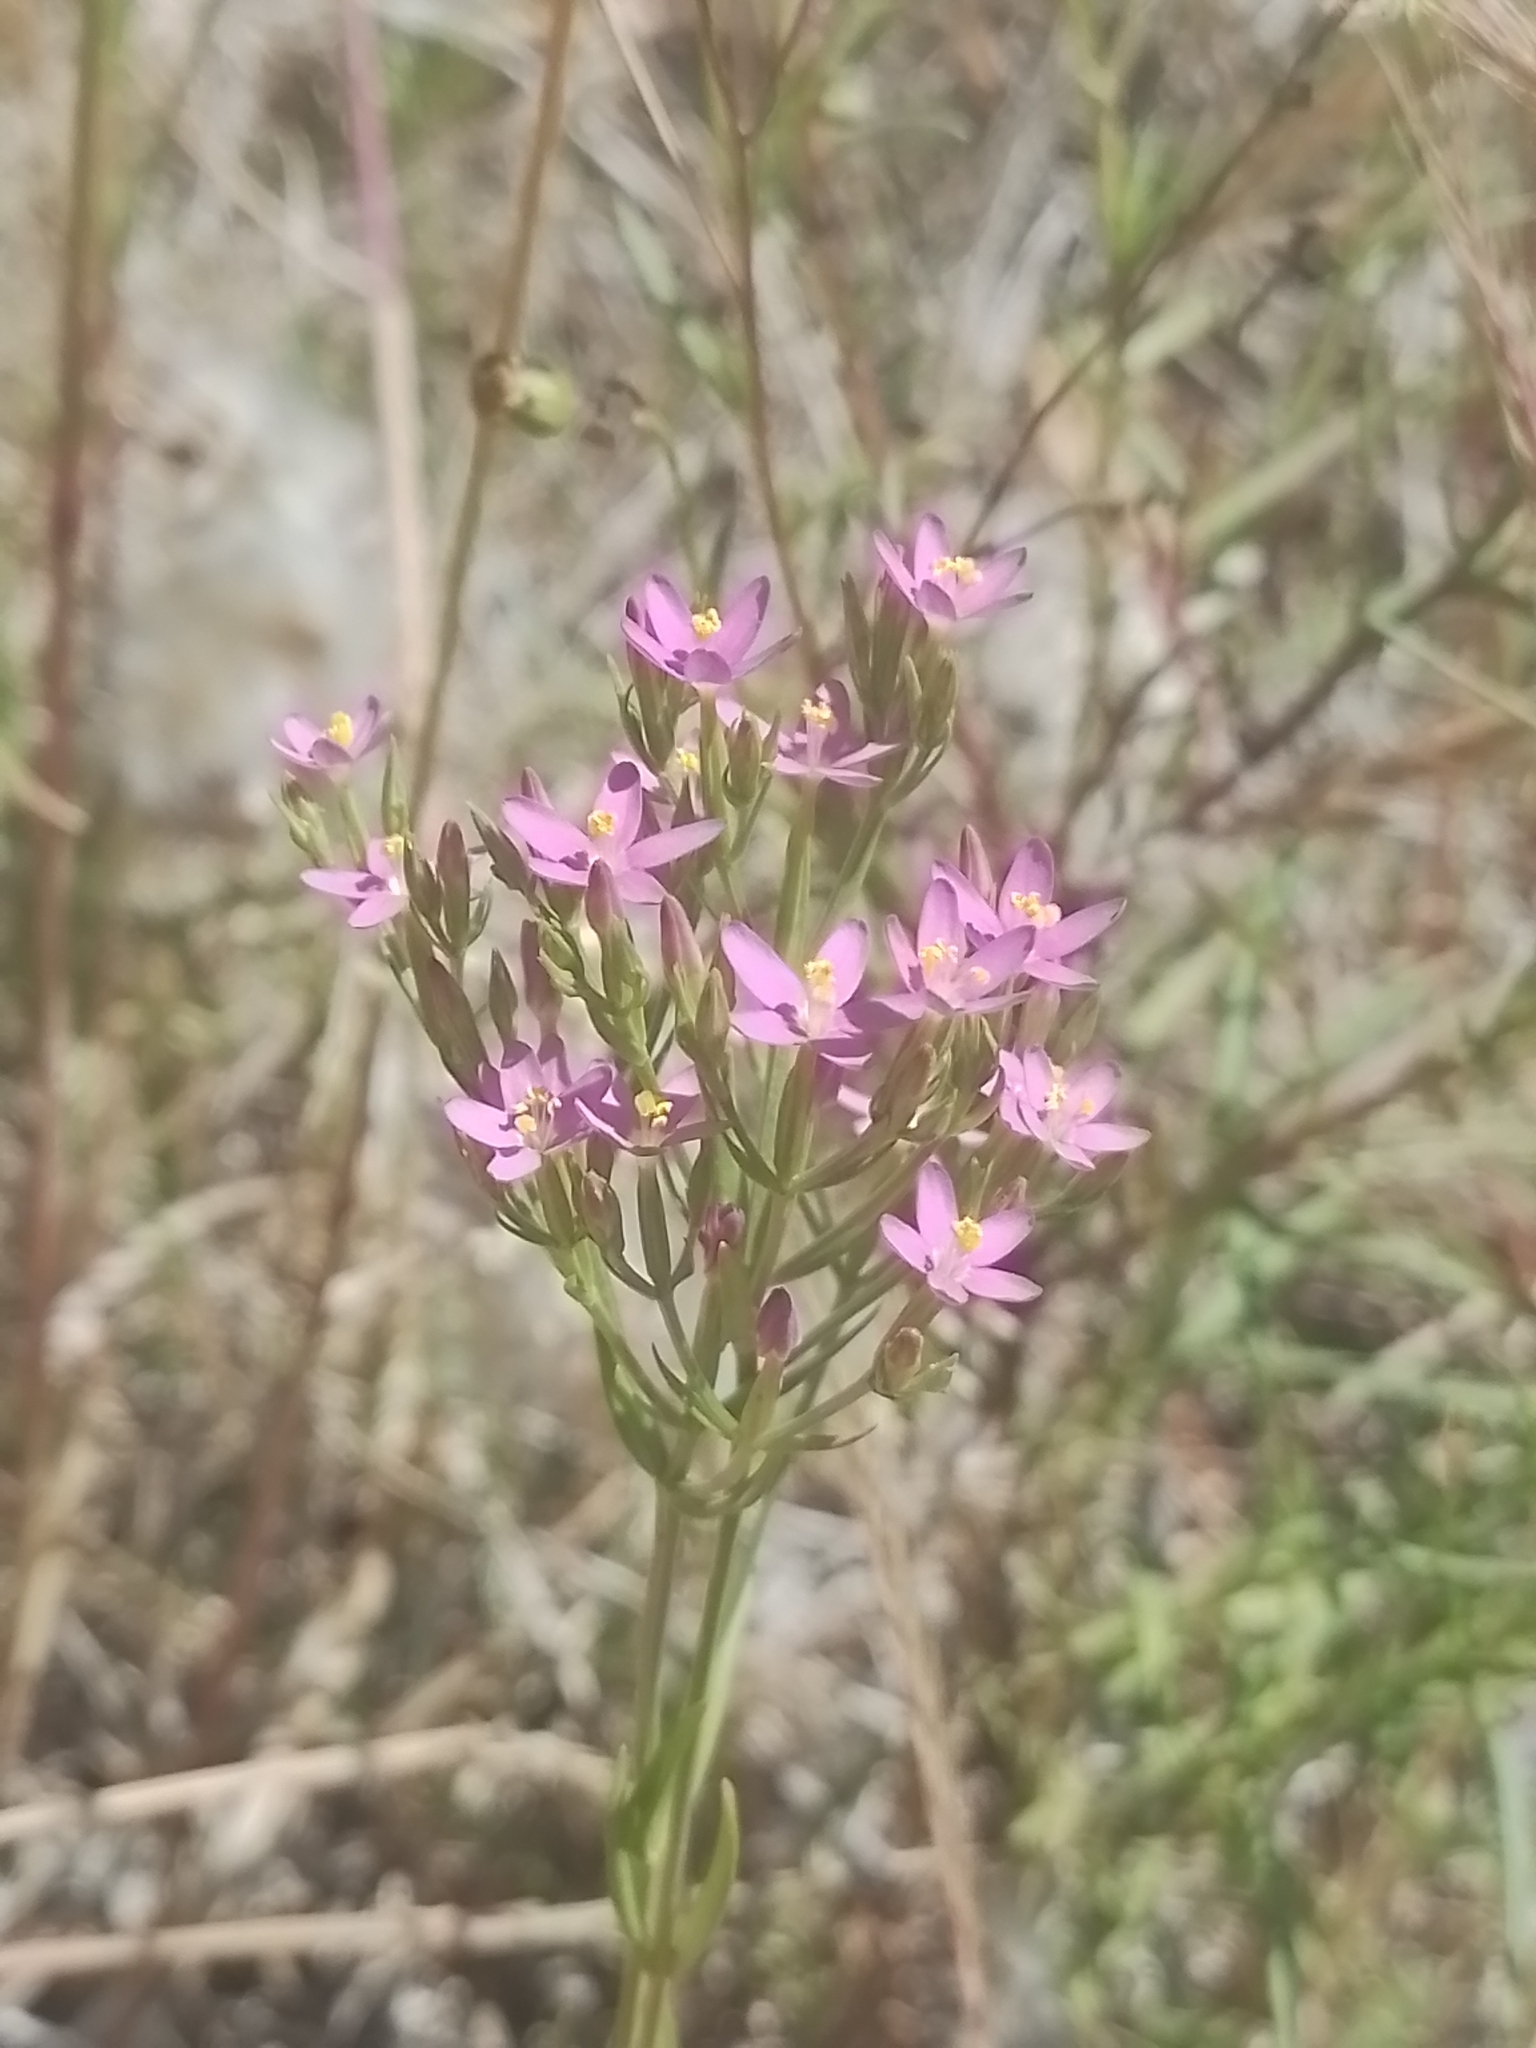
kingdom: Plantae
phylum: Tracheophyta
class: Magnoliopsida
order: Gentianales
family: Gentianaceae
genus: Centaurium
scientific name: Centaurium pulchellum
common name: Lesser centaury
